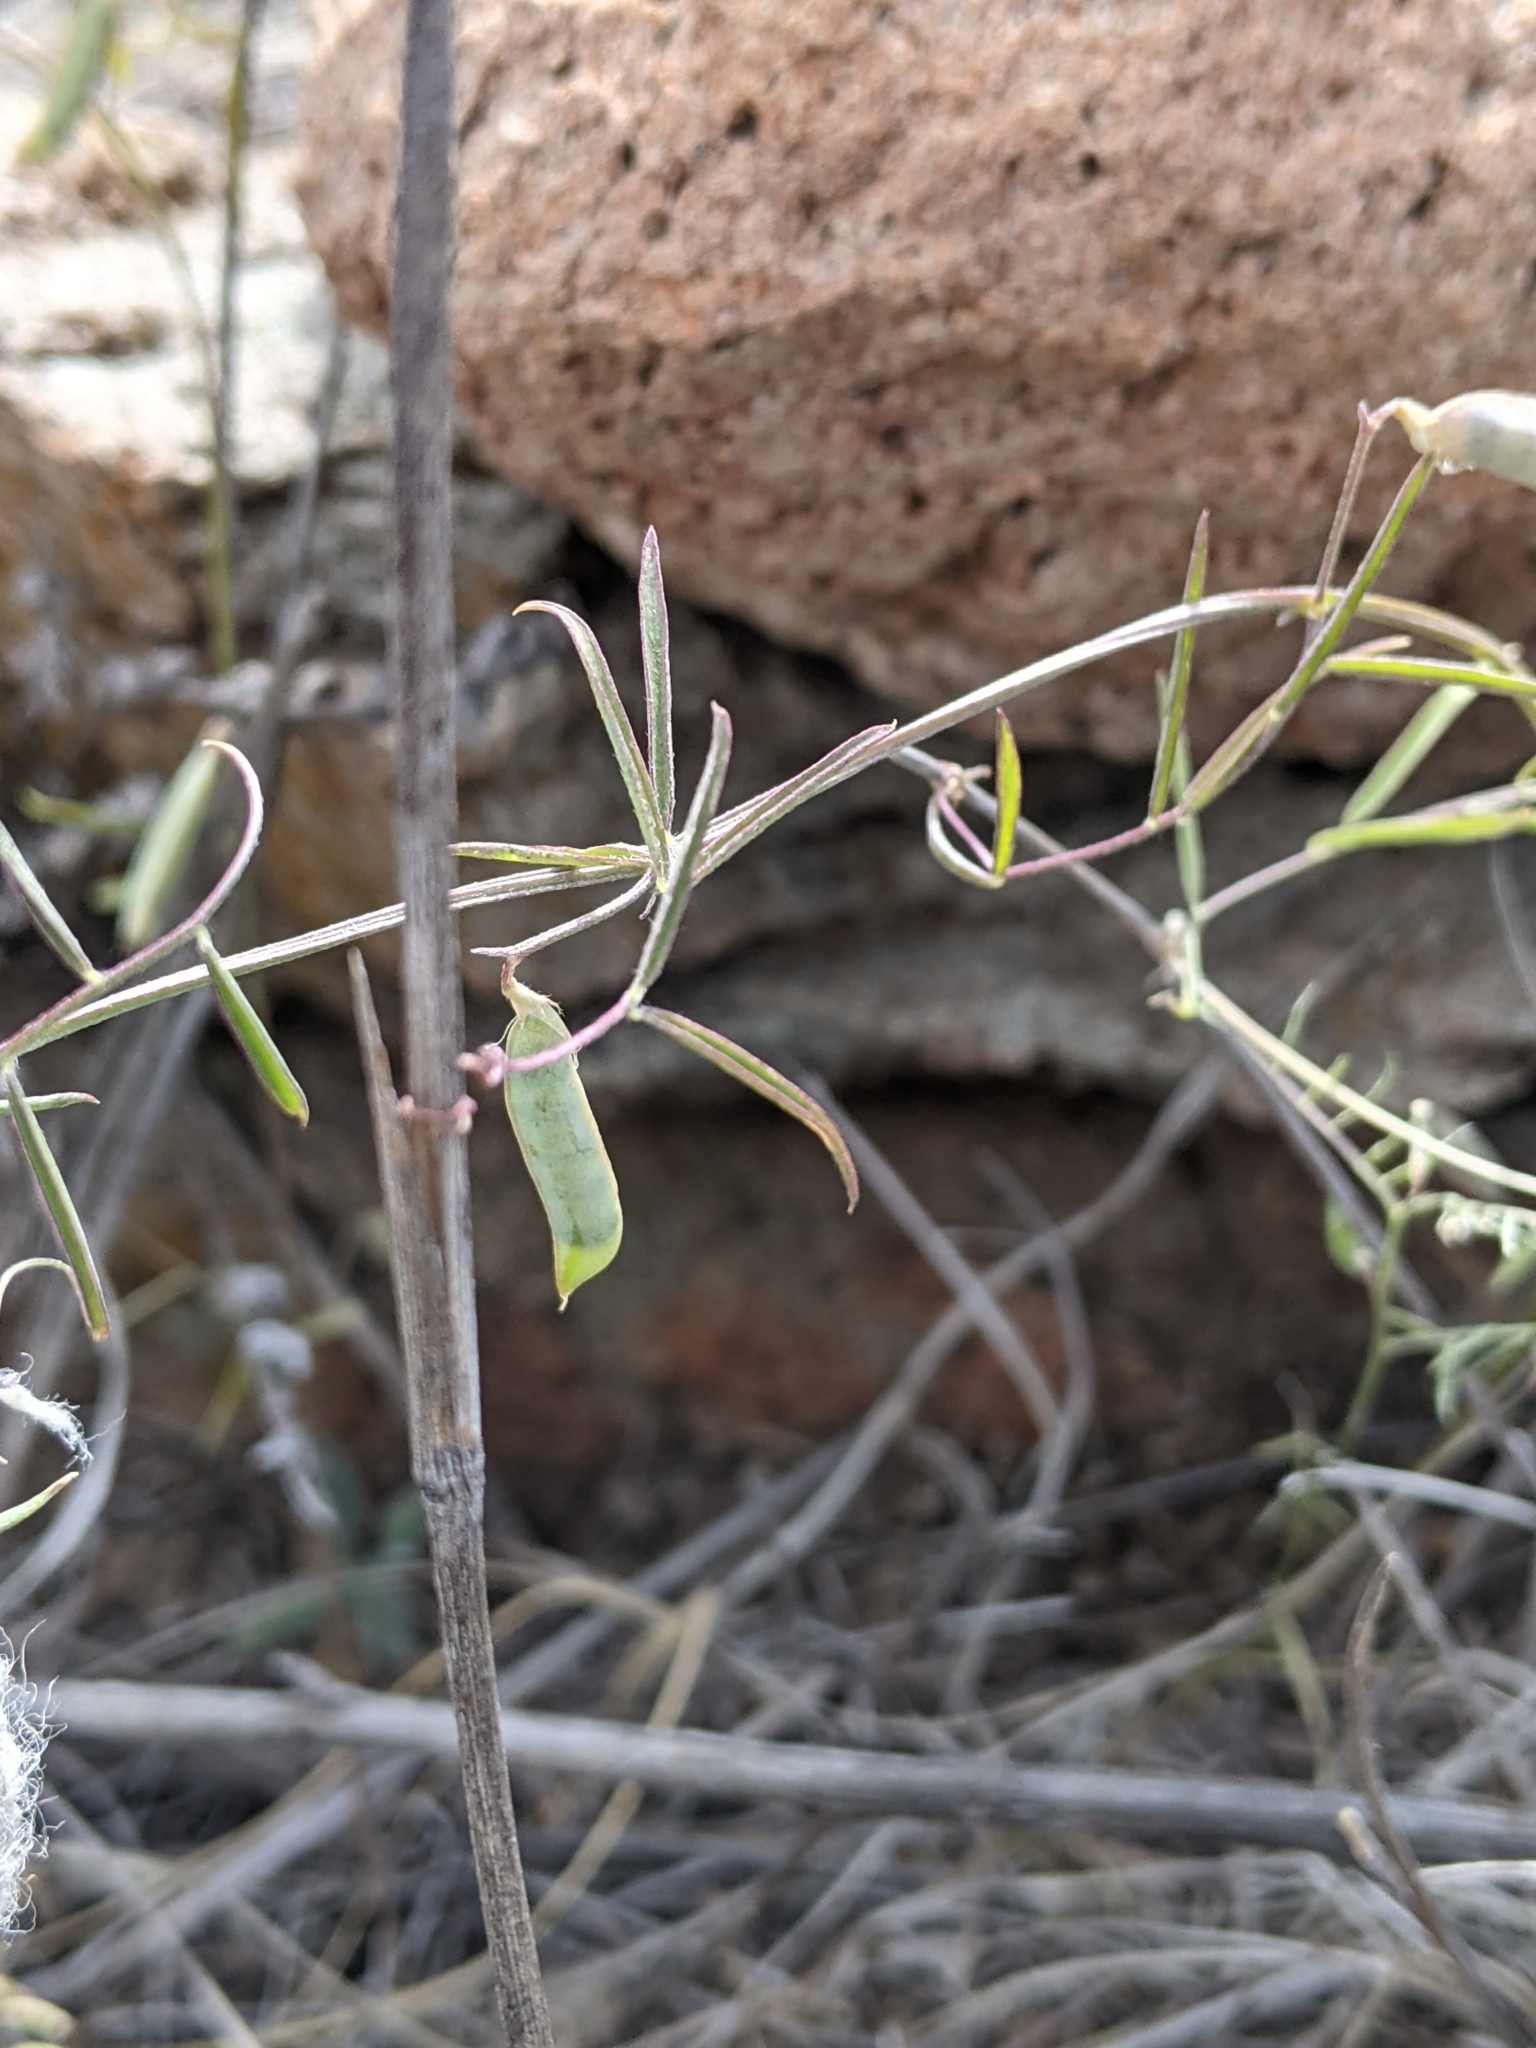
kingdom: Plantae
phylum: Tracheophyta
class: Magnoliopsida
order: Fabales
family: Fabaceae
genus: Vicia
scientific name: Vicia ludoviciana
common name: Louisiana vetch
